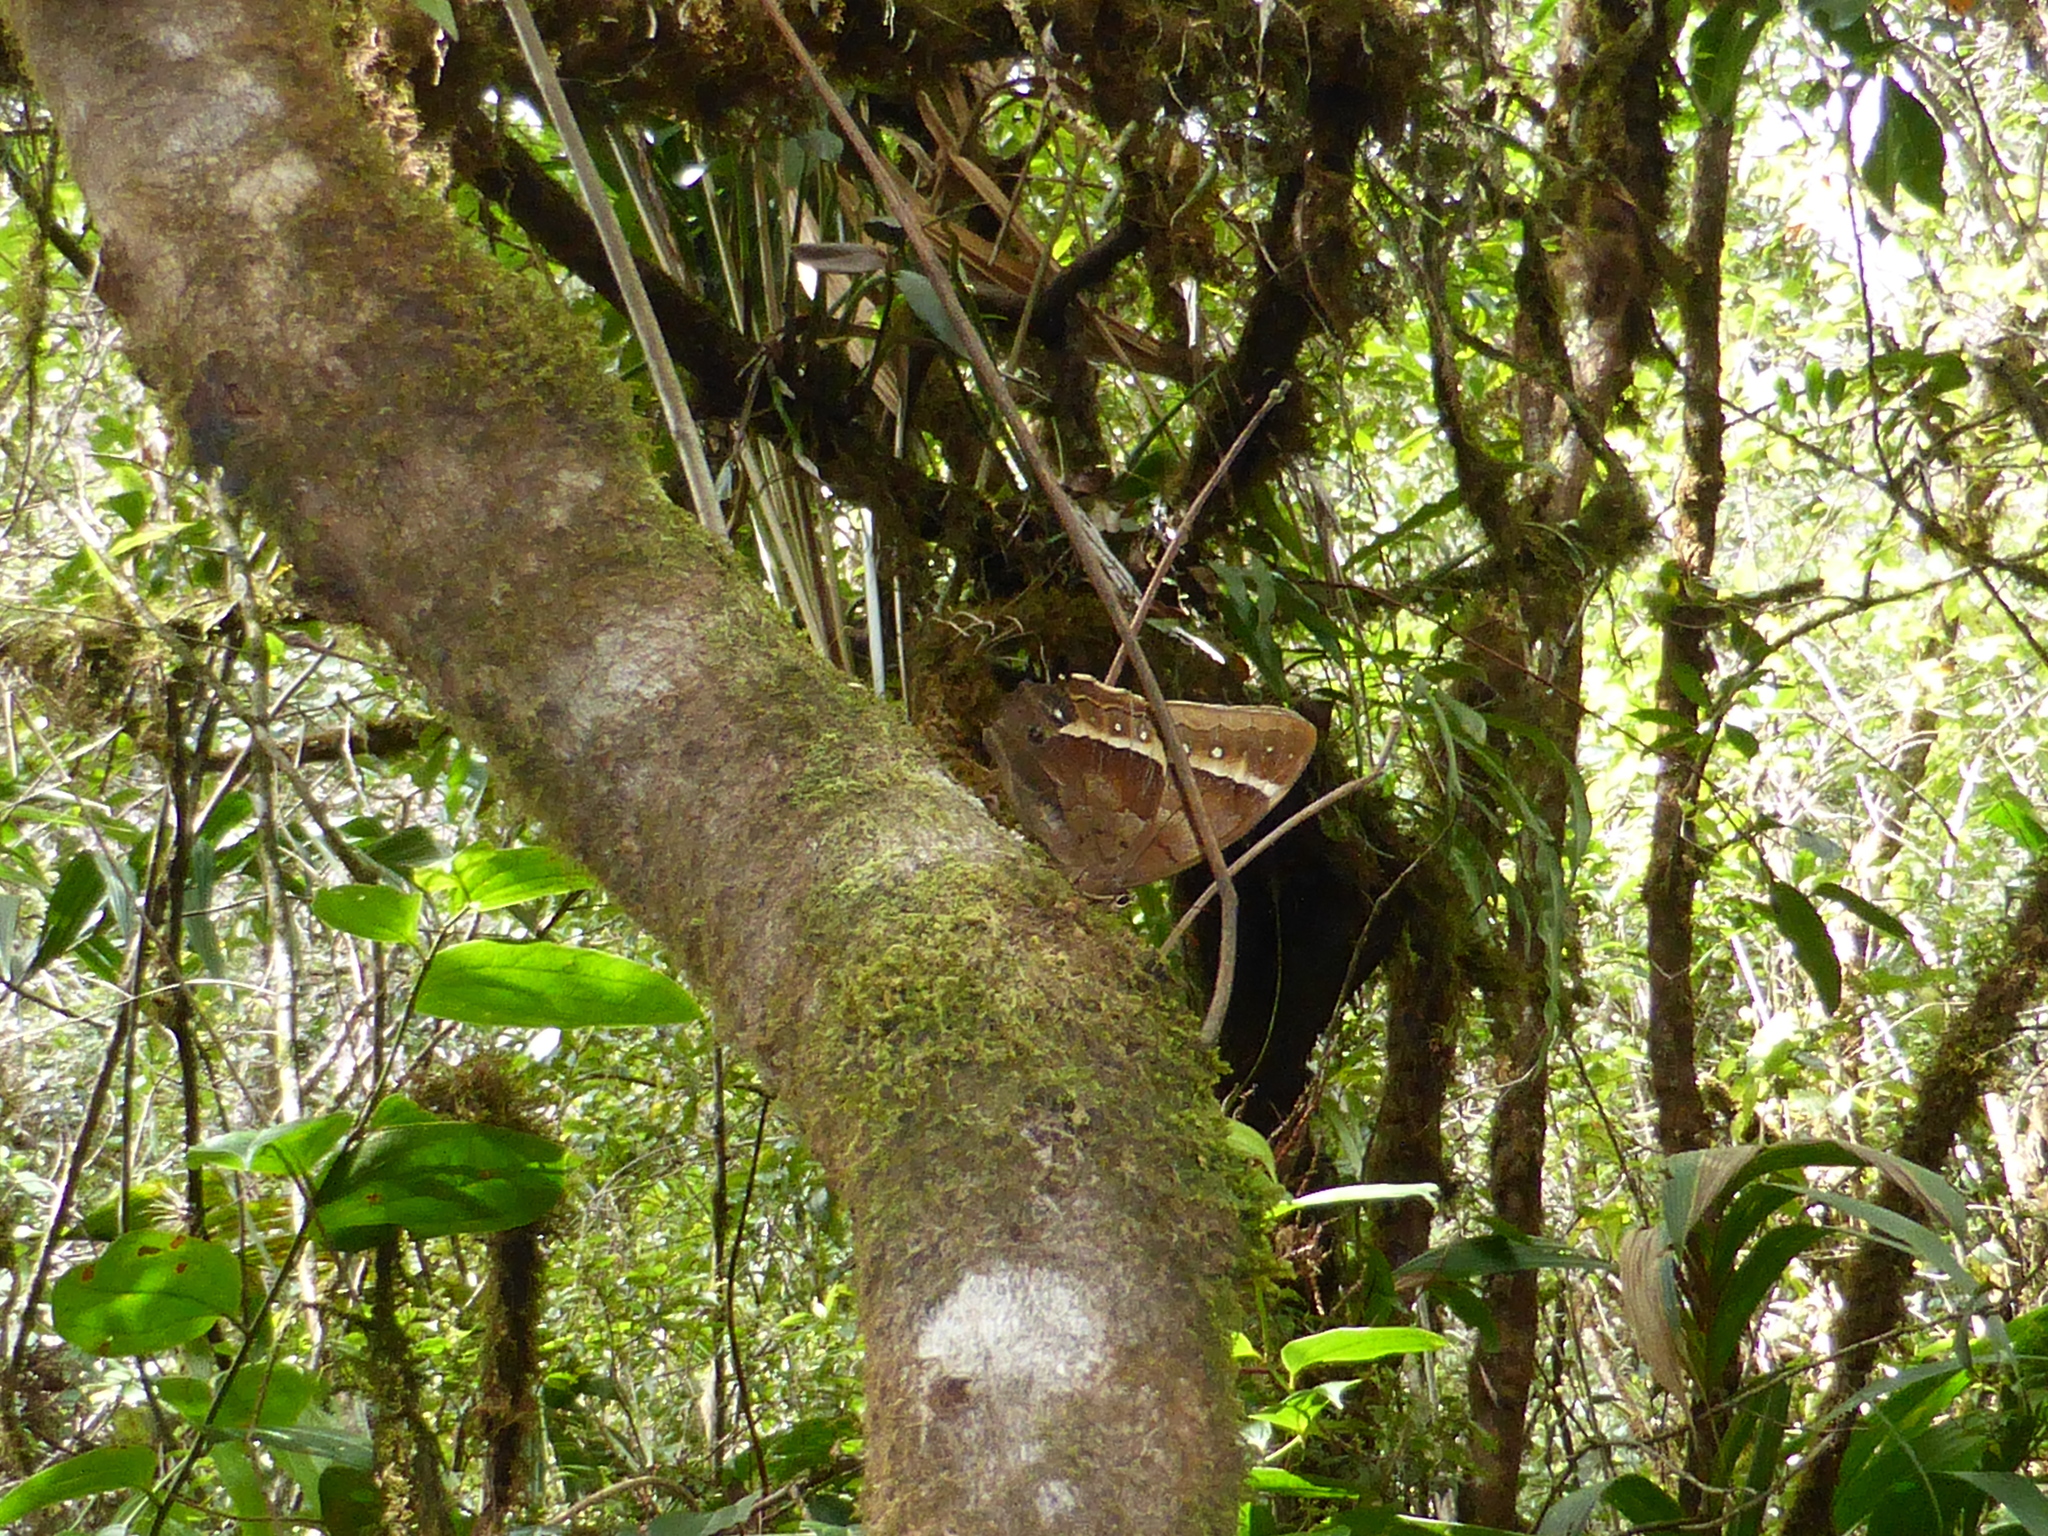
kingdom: Animalia
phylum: Arthropoda
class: Insecta
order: Lepidoptera
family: Nymphalidae
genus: Antirrhea
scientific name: Antirrhea ulei
